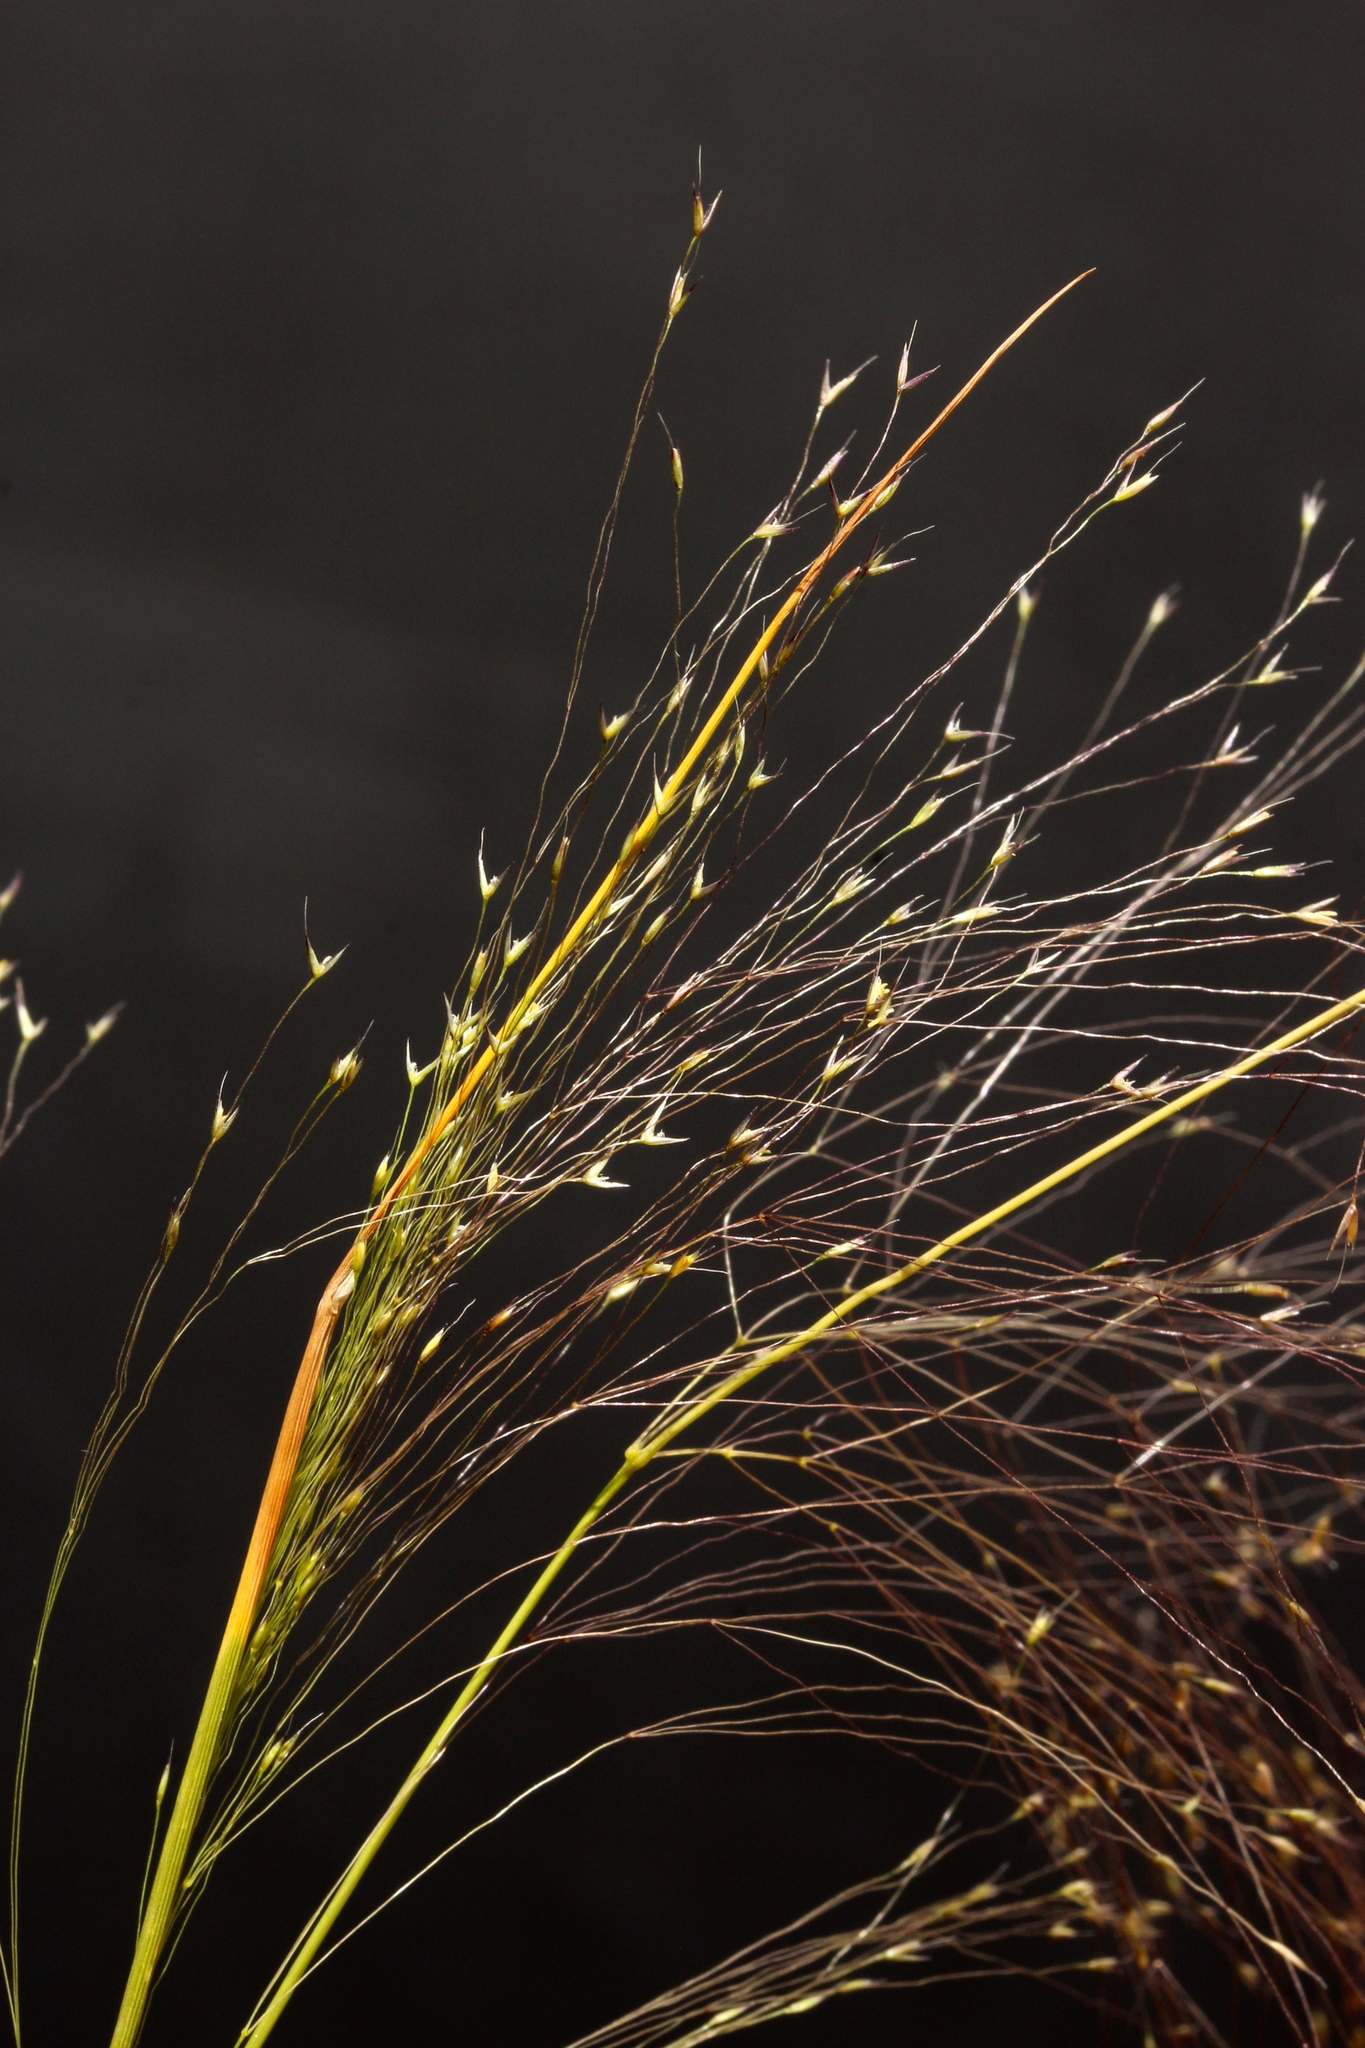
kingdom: Plantae
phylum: Tracheophyta
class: Liliopsida
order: Poales
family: Poaceae
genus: Agrostis
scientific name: Agrostis montevidensis
